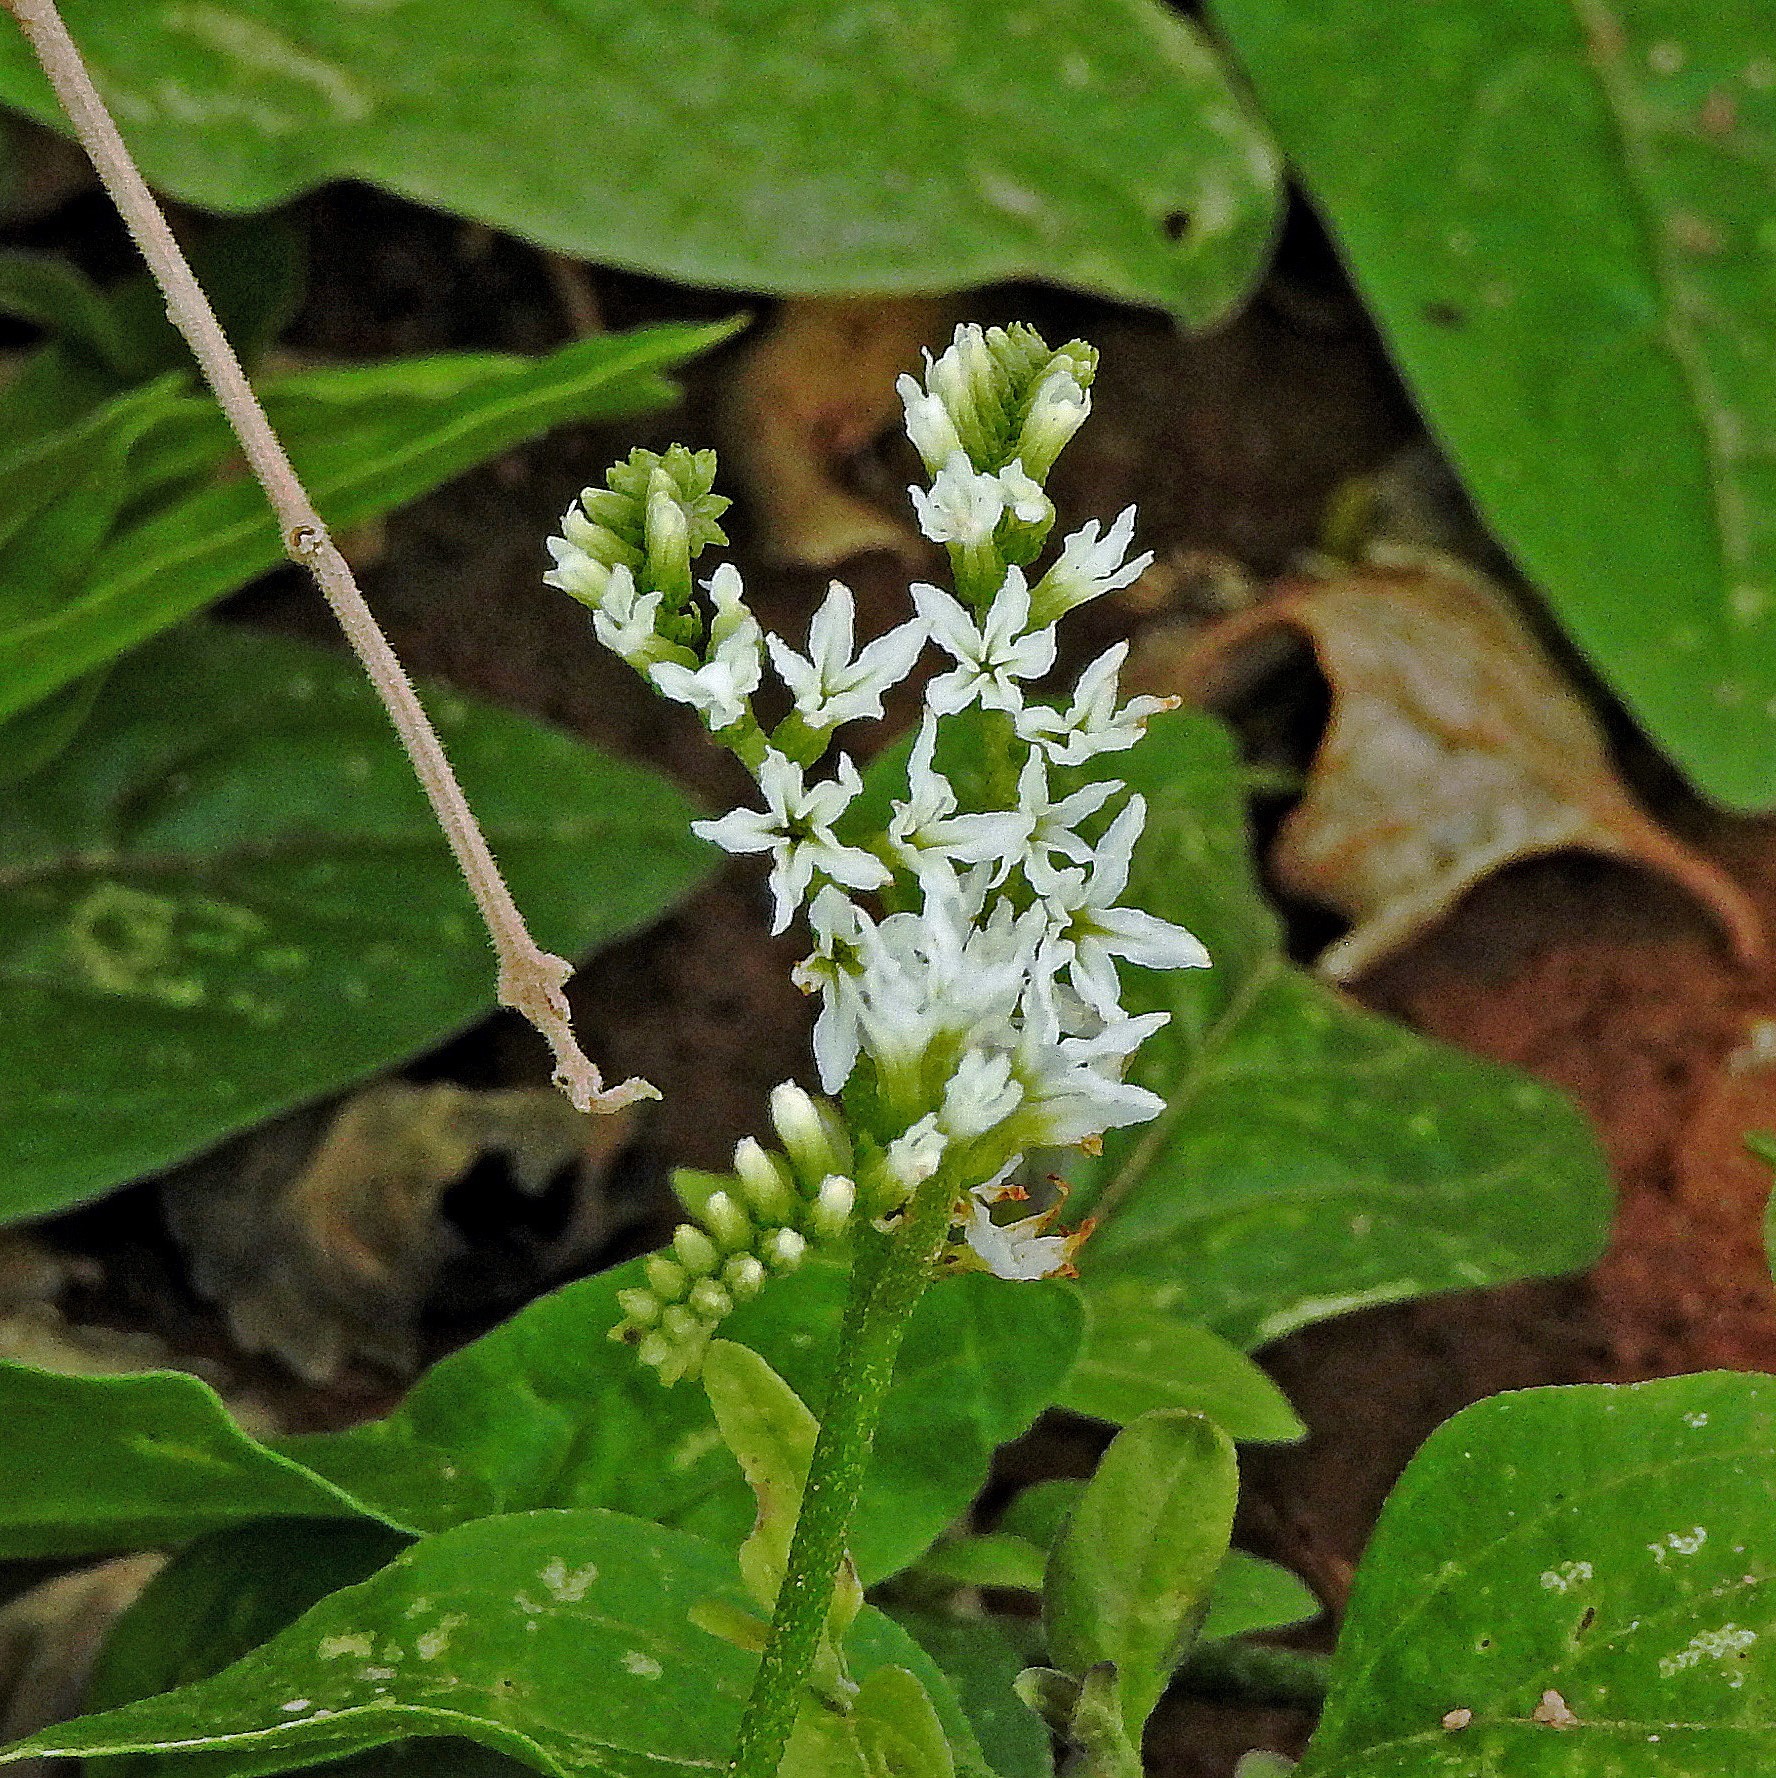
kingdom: Plantae
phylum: Tracheophyta
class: Magnoliopsida
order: Boraginales
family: Heliotropiaceae
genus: Euploca
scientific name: Euploca procumbens
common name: Fourspike heliotrope
